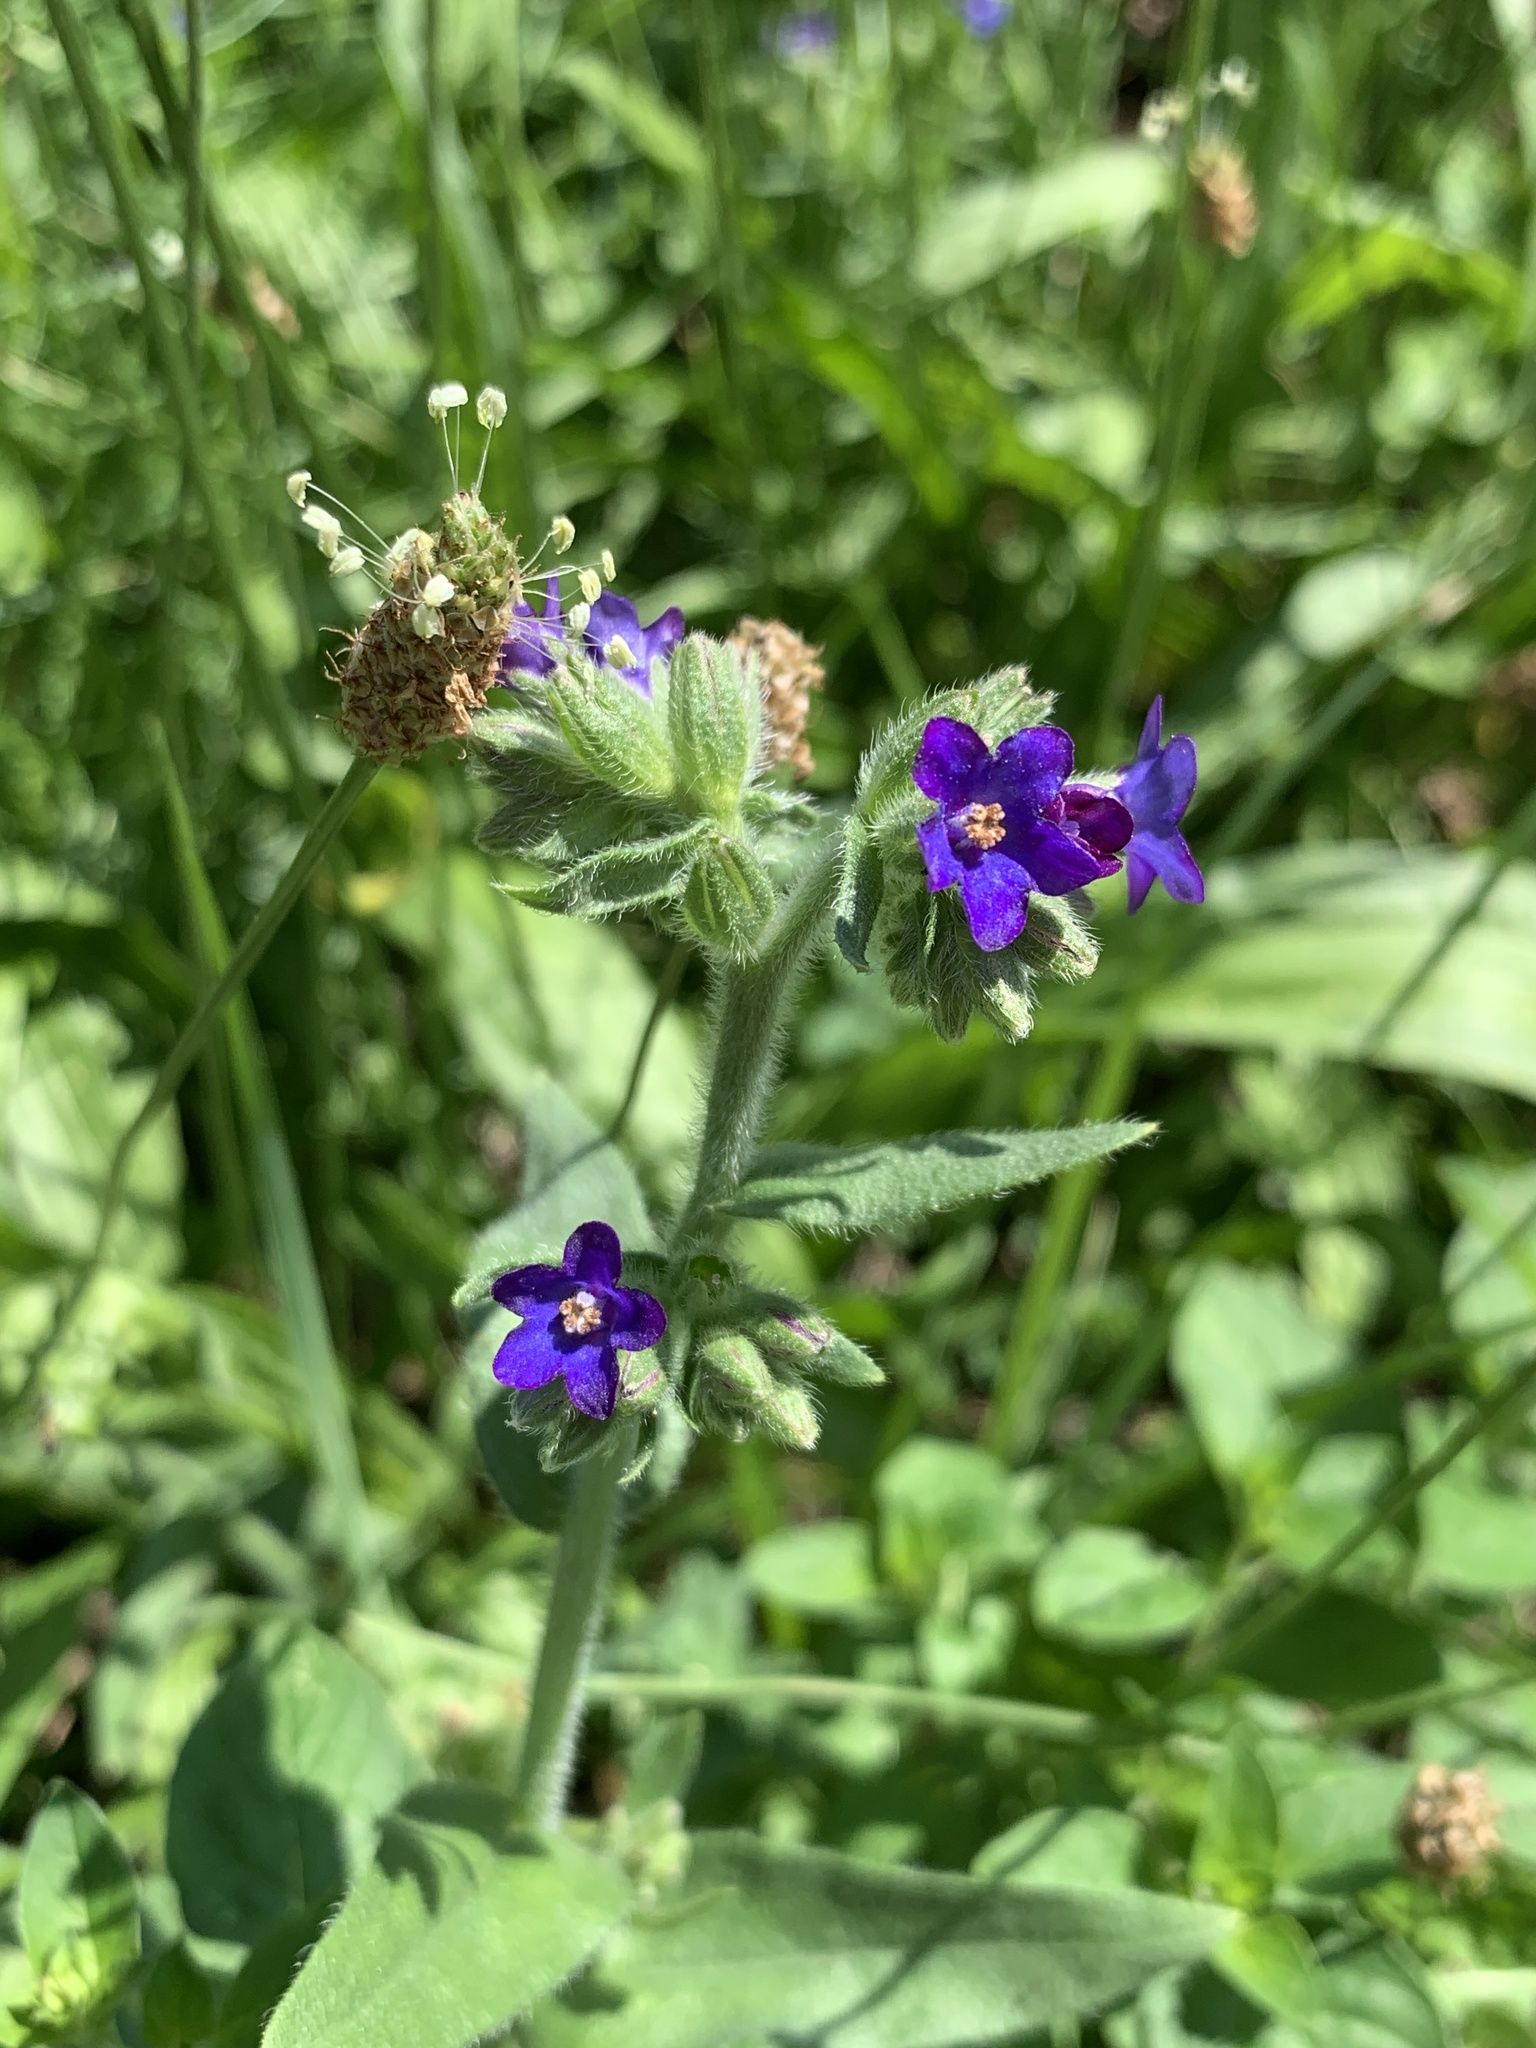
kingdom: Plantae
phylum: Tracheophyta
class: Magnoliopsida
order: Boraginales
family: Boraginaceae
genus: Anchusa
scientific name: Anchusa officinalis
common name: Alkanet
